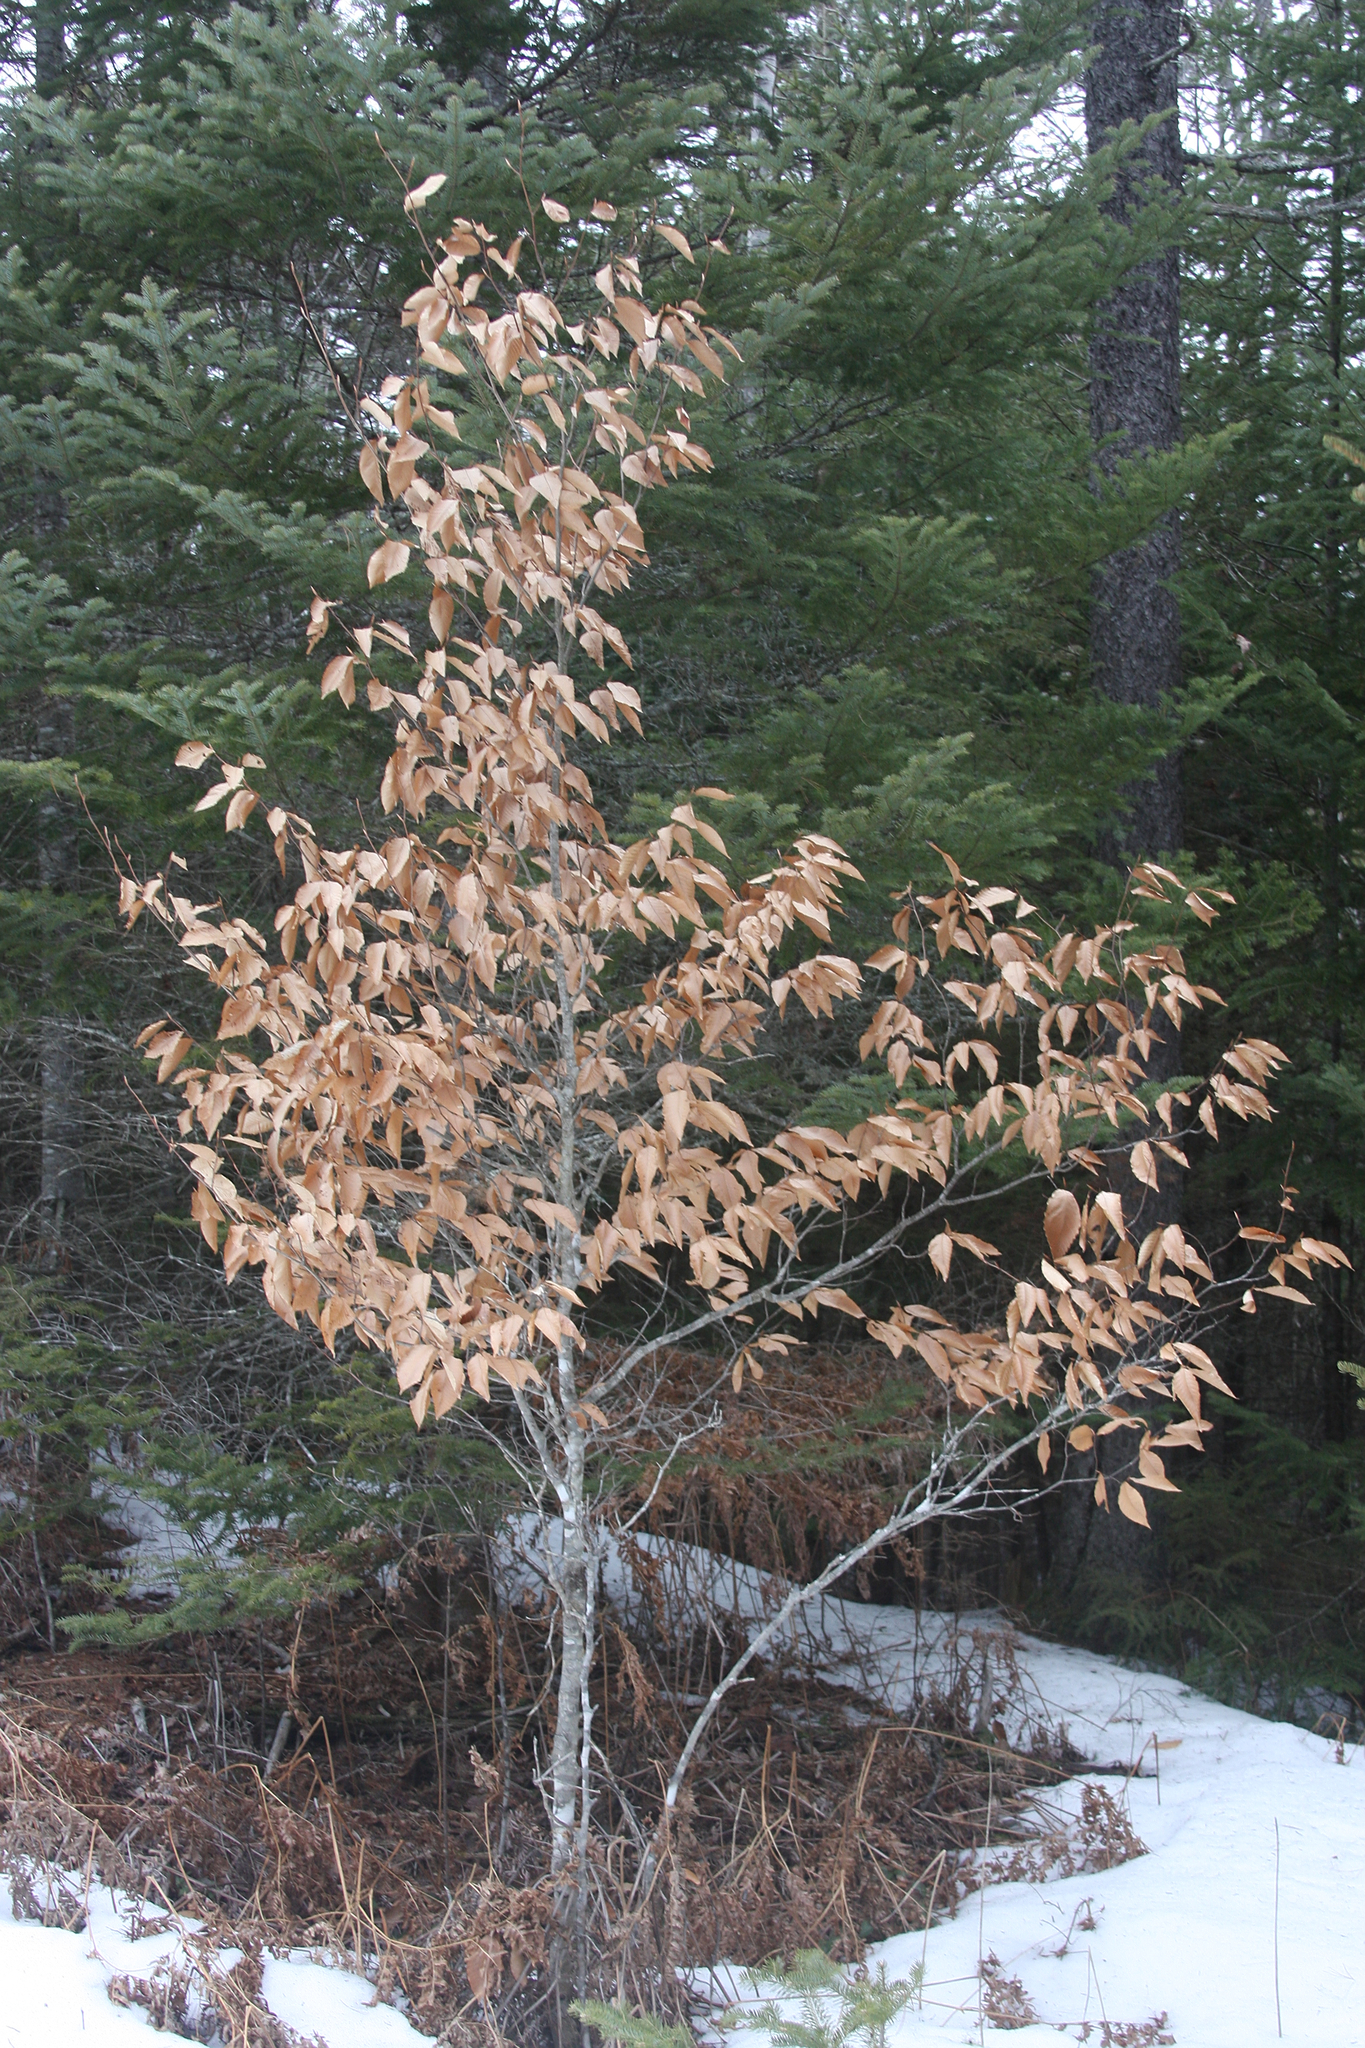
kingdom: Plantae
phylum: Tracheophyta
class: Magnoliopsida
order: Fagales
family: Fagaceae
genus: Fagus
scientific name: Fagus grandifolia
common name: American beech
